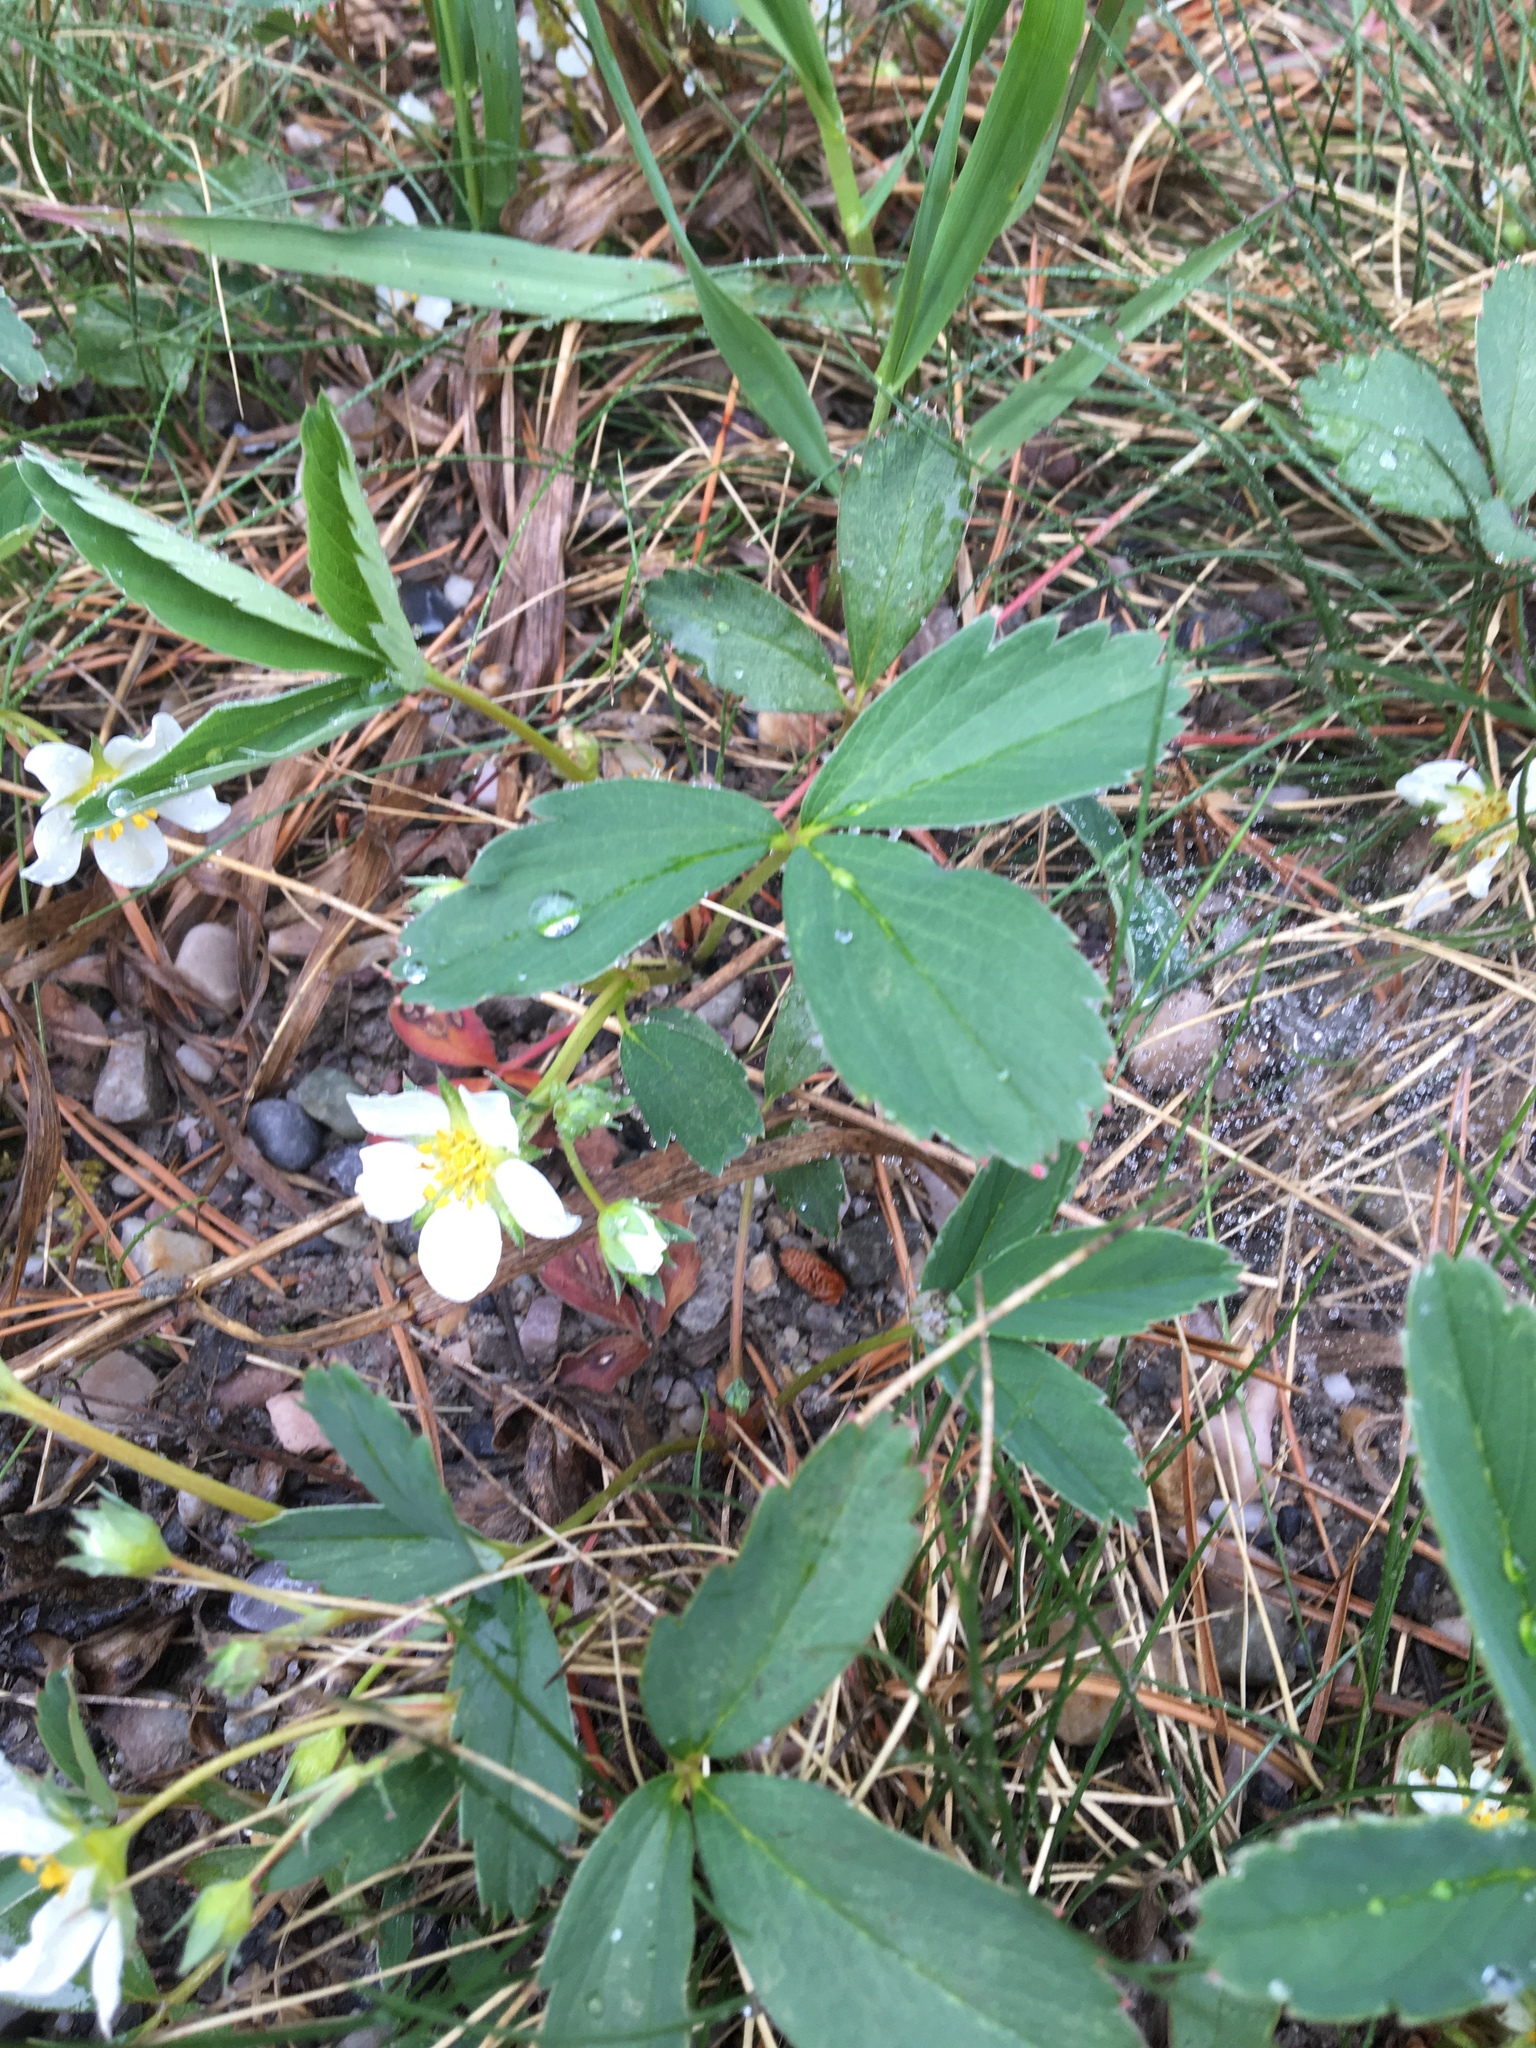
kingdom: Plantae
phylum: Tracheophyta
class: Magnoliopsida
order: Rosales
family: Rosaceae
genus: Fragaria
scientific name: Fragaria virginiana
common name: Thickleaved wild strawberry
